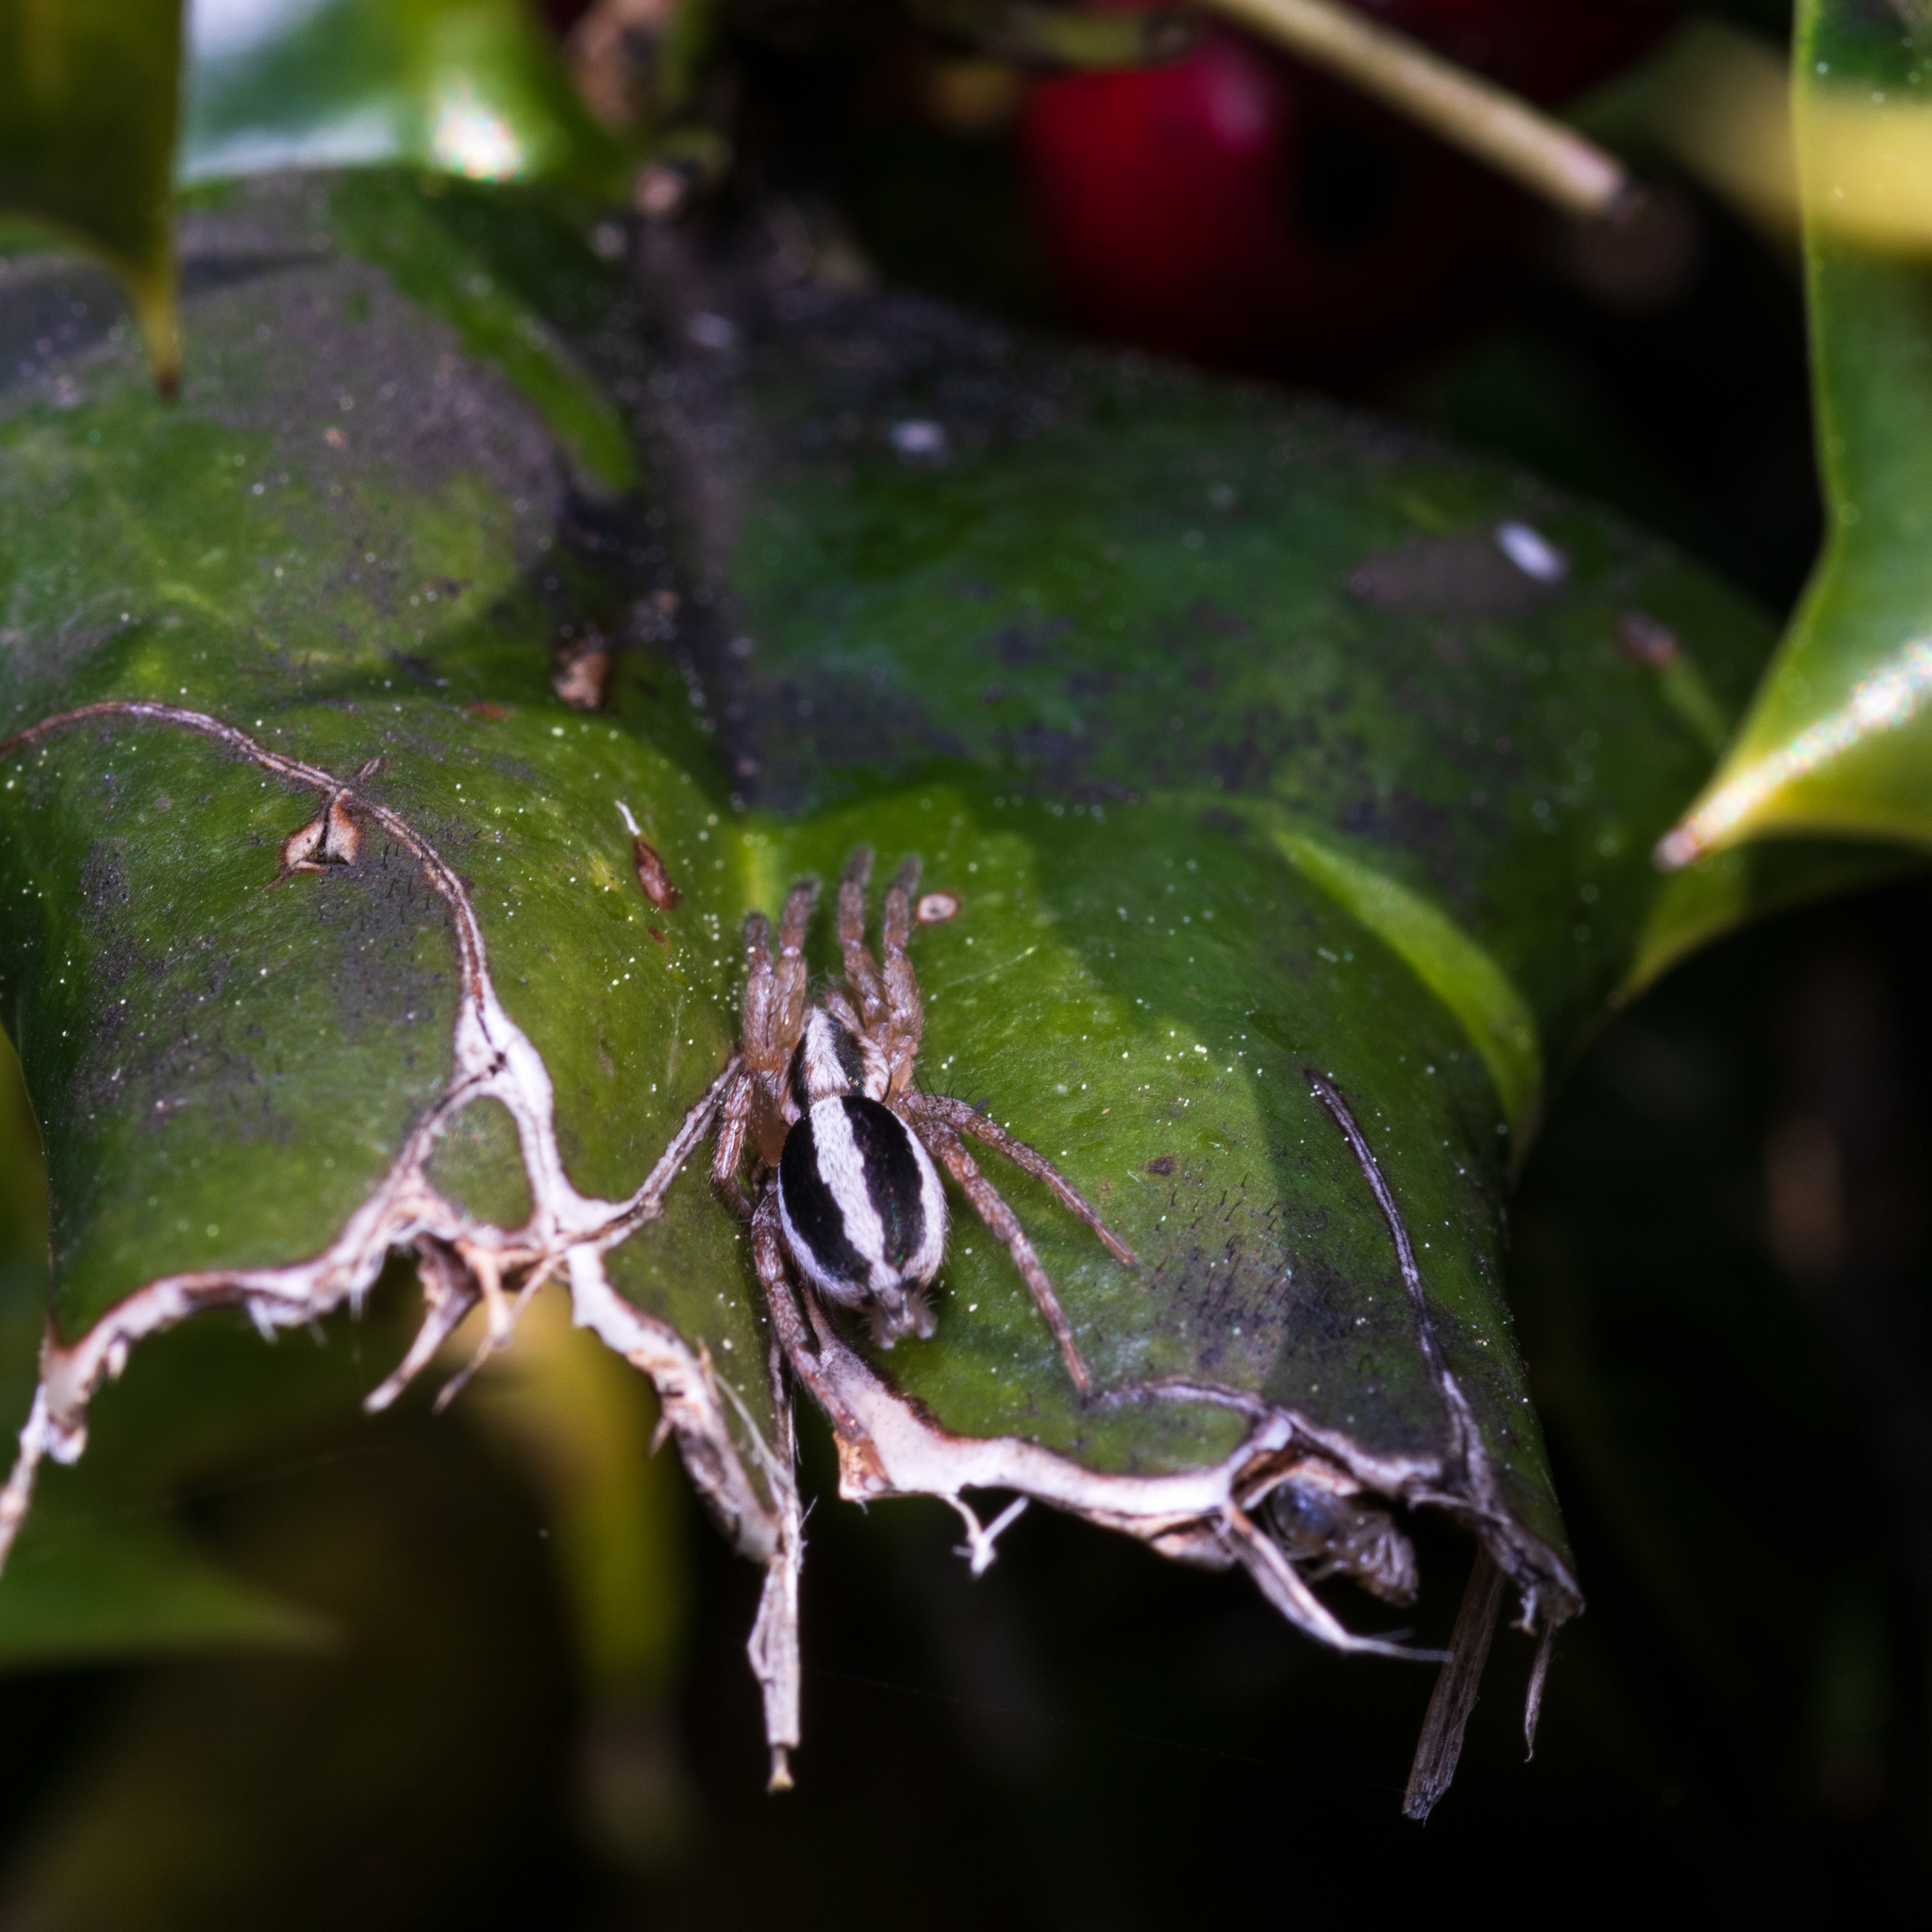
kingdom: Animalia
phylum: Arthropoda
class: Arachnida
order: Araneae
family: Gnaphosidae
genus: Cesonia
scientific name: Cesonia bilineata
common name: Two-lined stealthy ground spider
